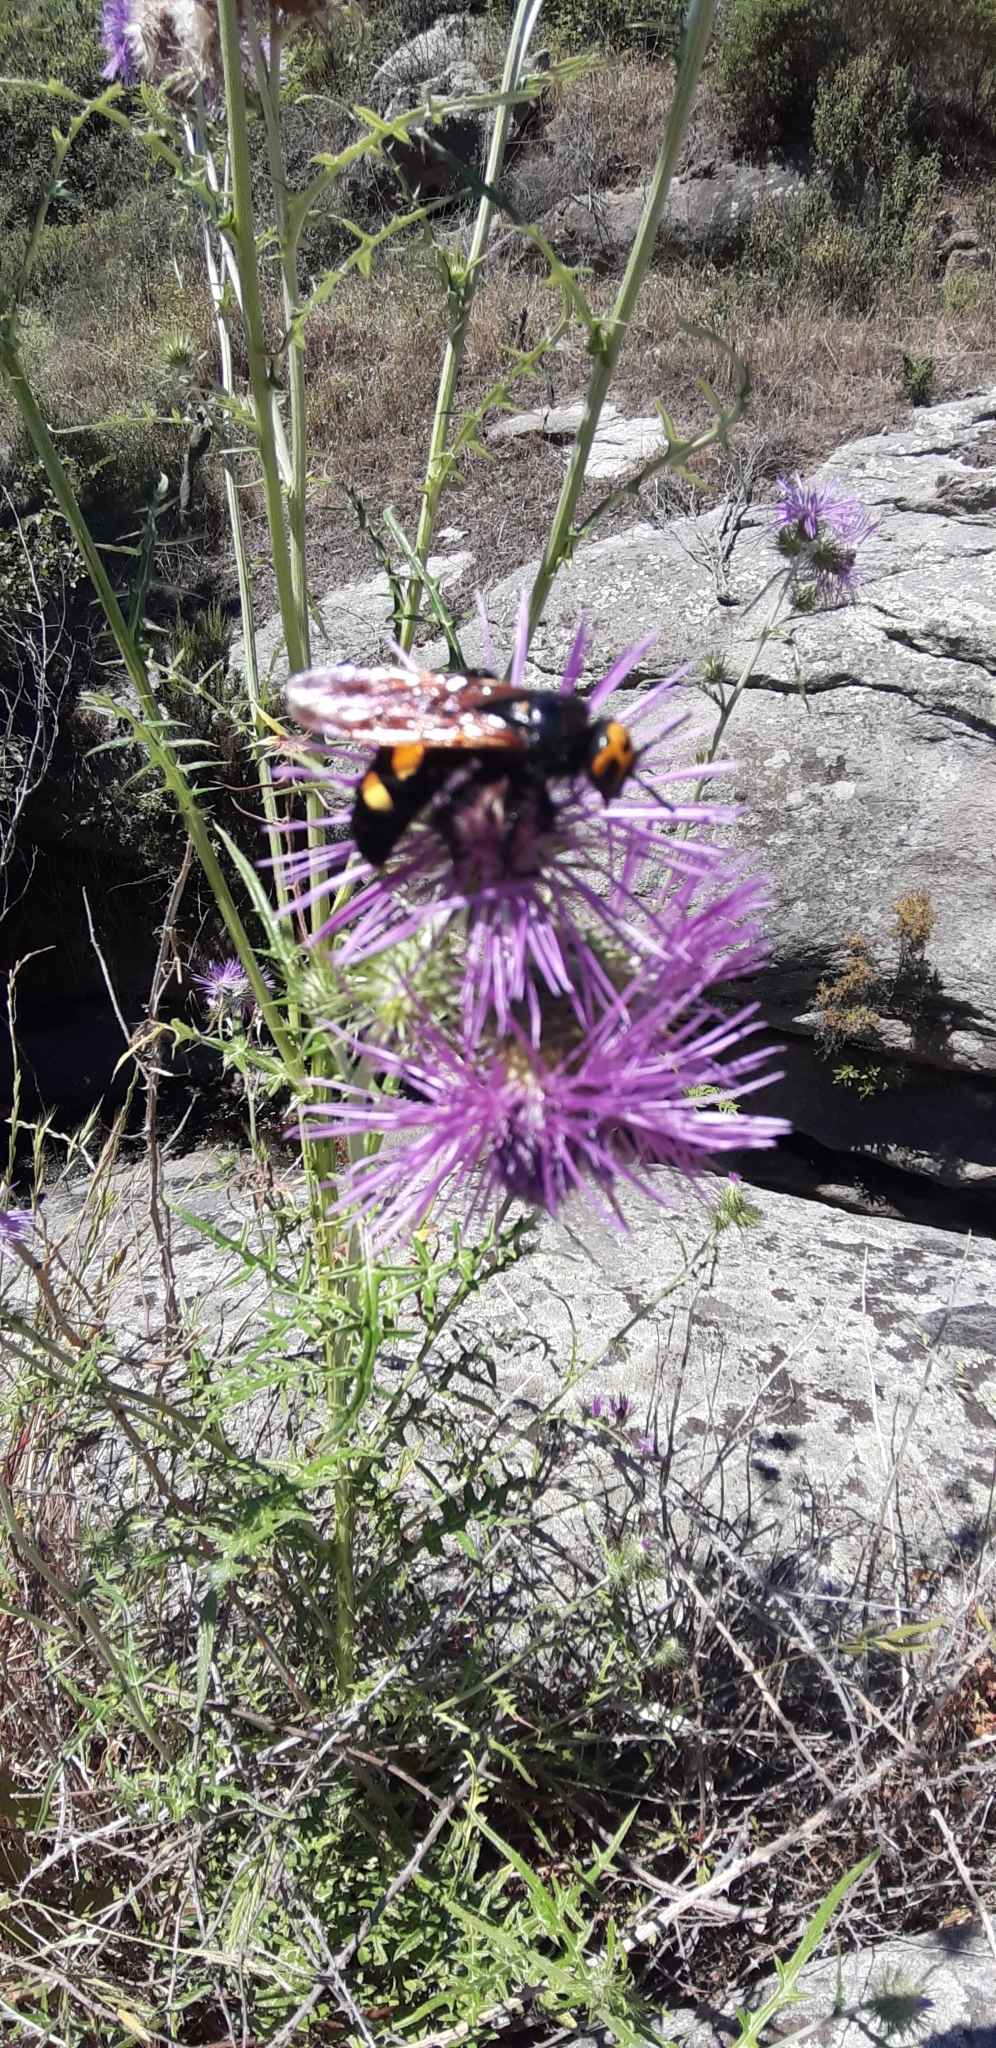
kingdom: Animalia
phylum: Arthropoda
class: Insecta
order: Hymenoptera
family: Scoliidae
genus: Megascolia
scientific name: Megascolia maculata
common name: Mammoth wasp
